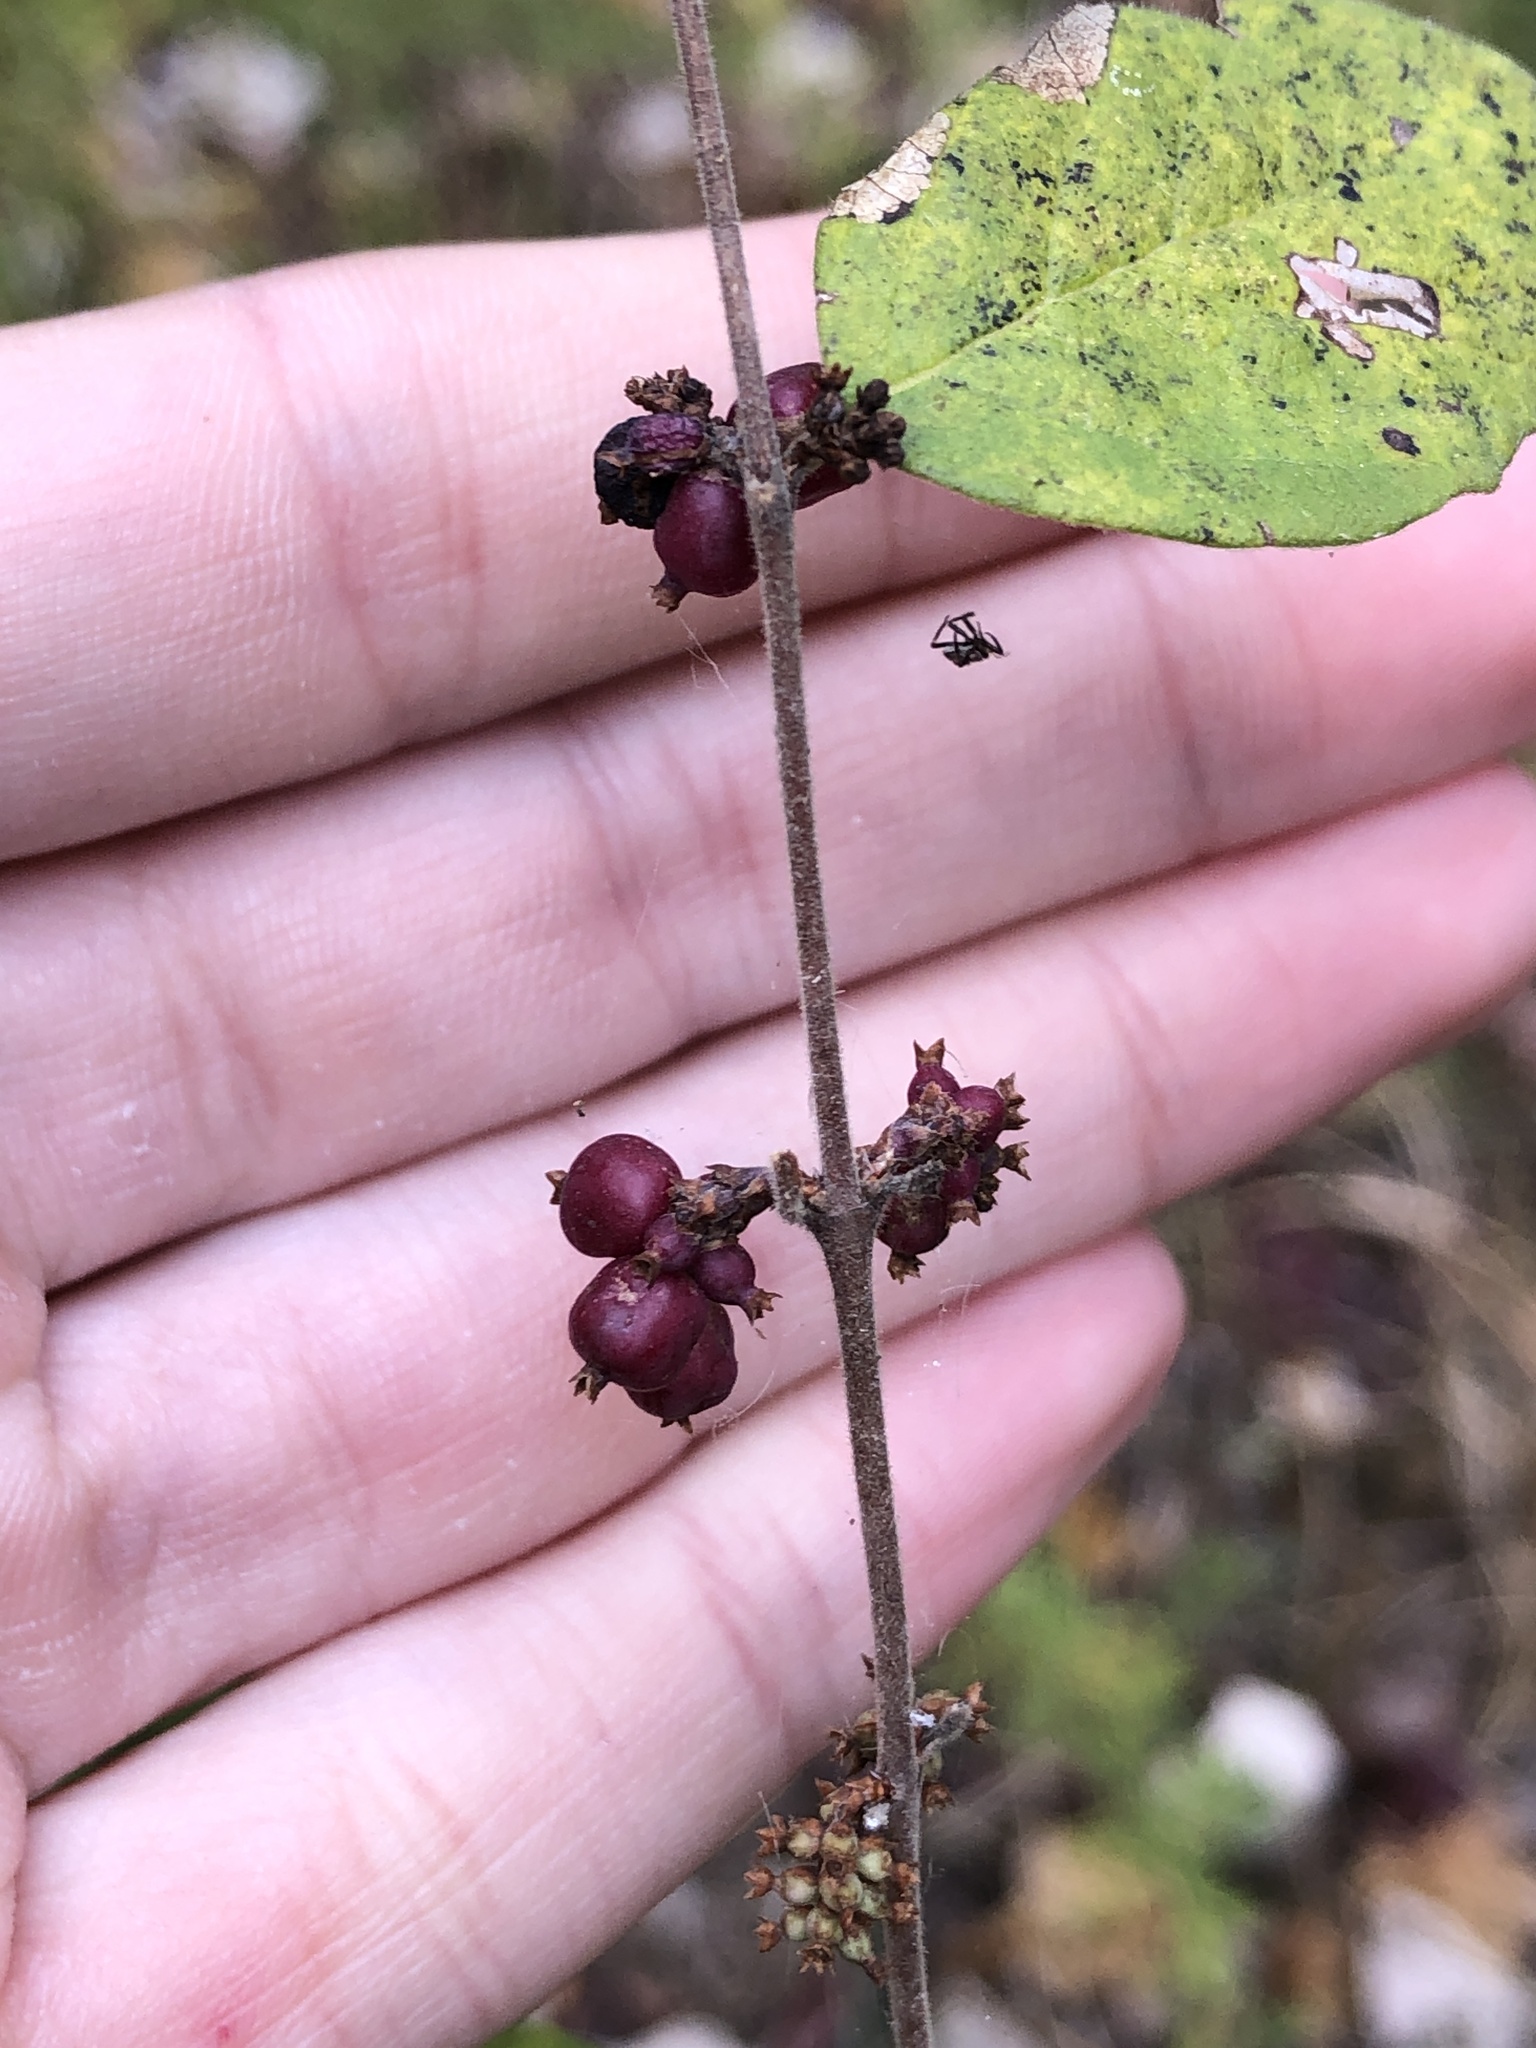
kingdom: Plantae
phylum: Tracheophyta
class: Magnoliopsida
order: Dipsacales
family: Caprifoliaceae
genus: Symphoricarpos
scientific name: Symphoricarpos orbiculatus
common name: Coralberry
